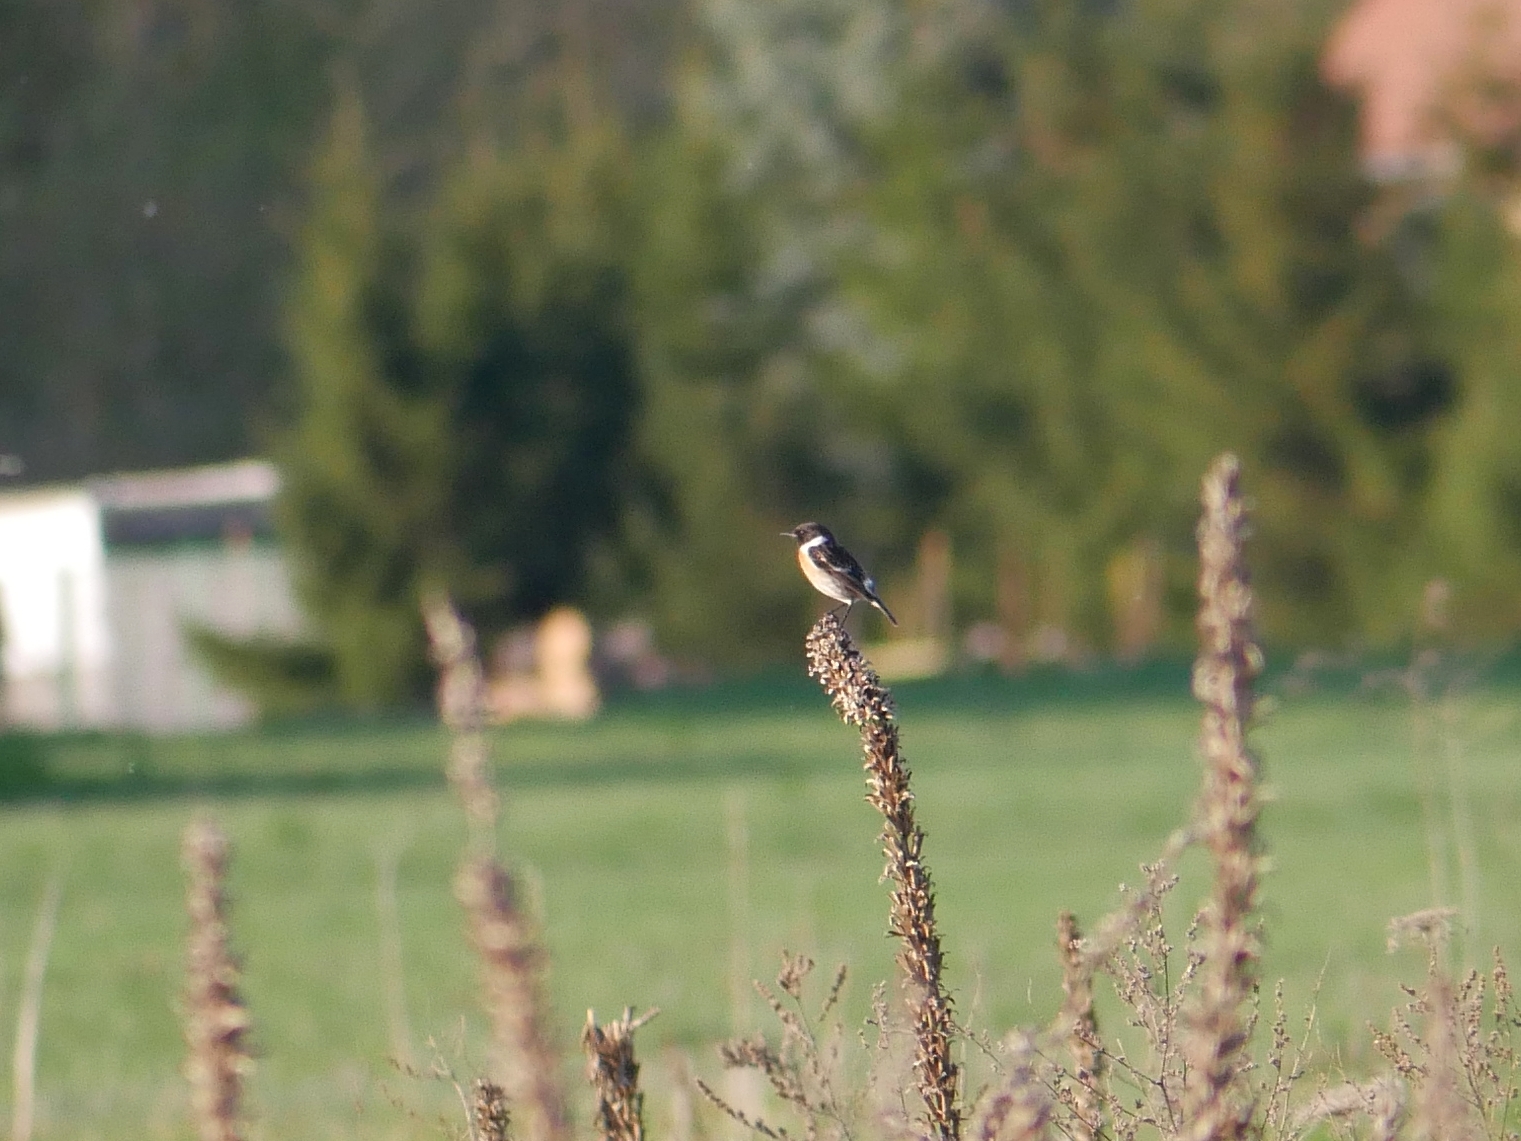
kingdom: Animalia
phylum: Chordata
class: Aves
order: Passeriformes
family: Muscicapidae
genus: Saxicola
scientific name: Saxicola rubicola
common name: European stonechat
